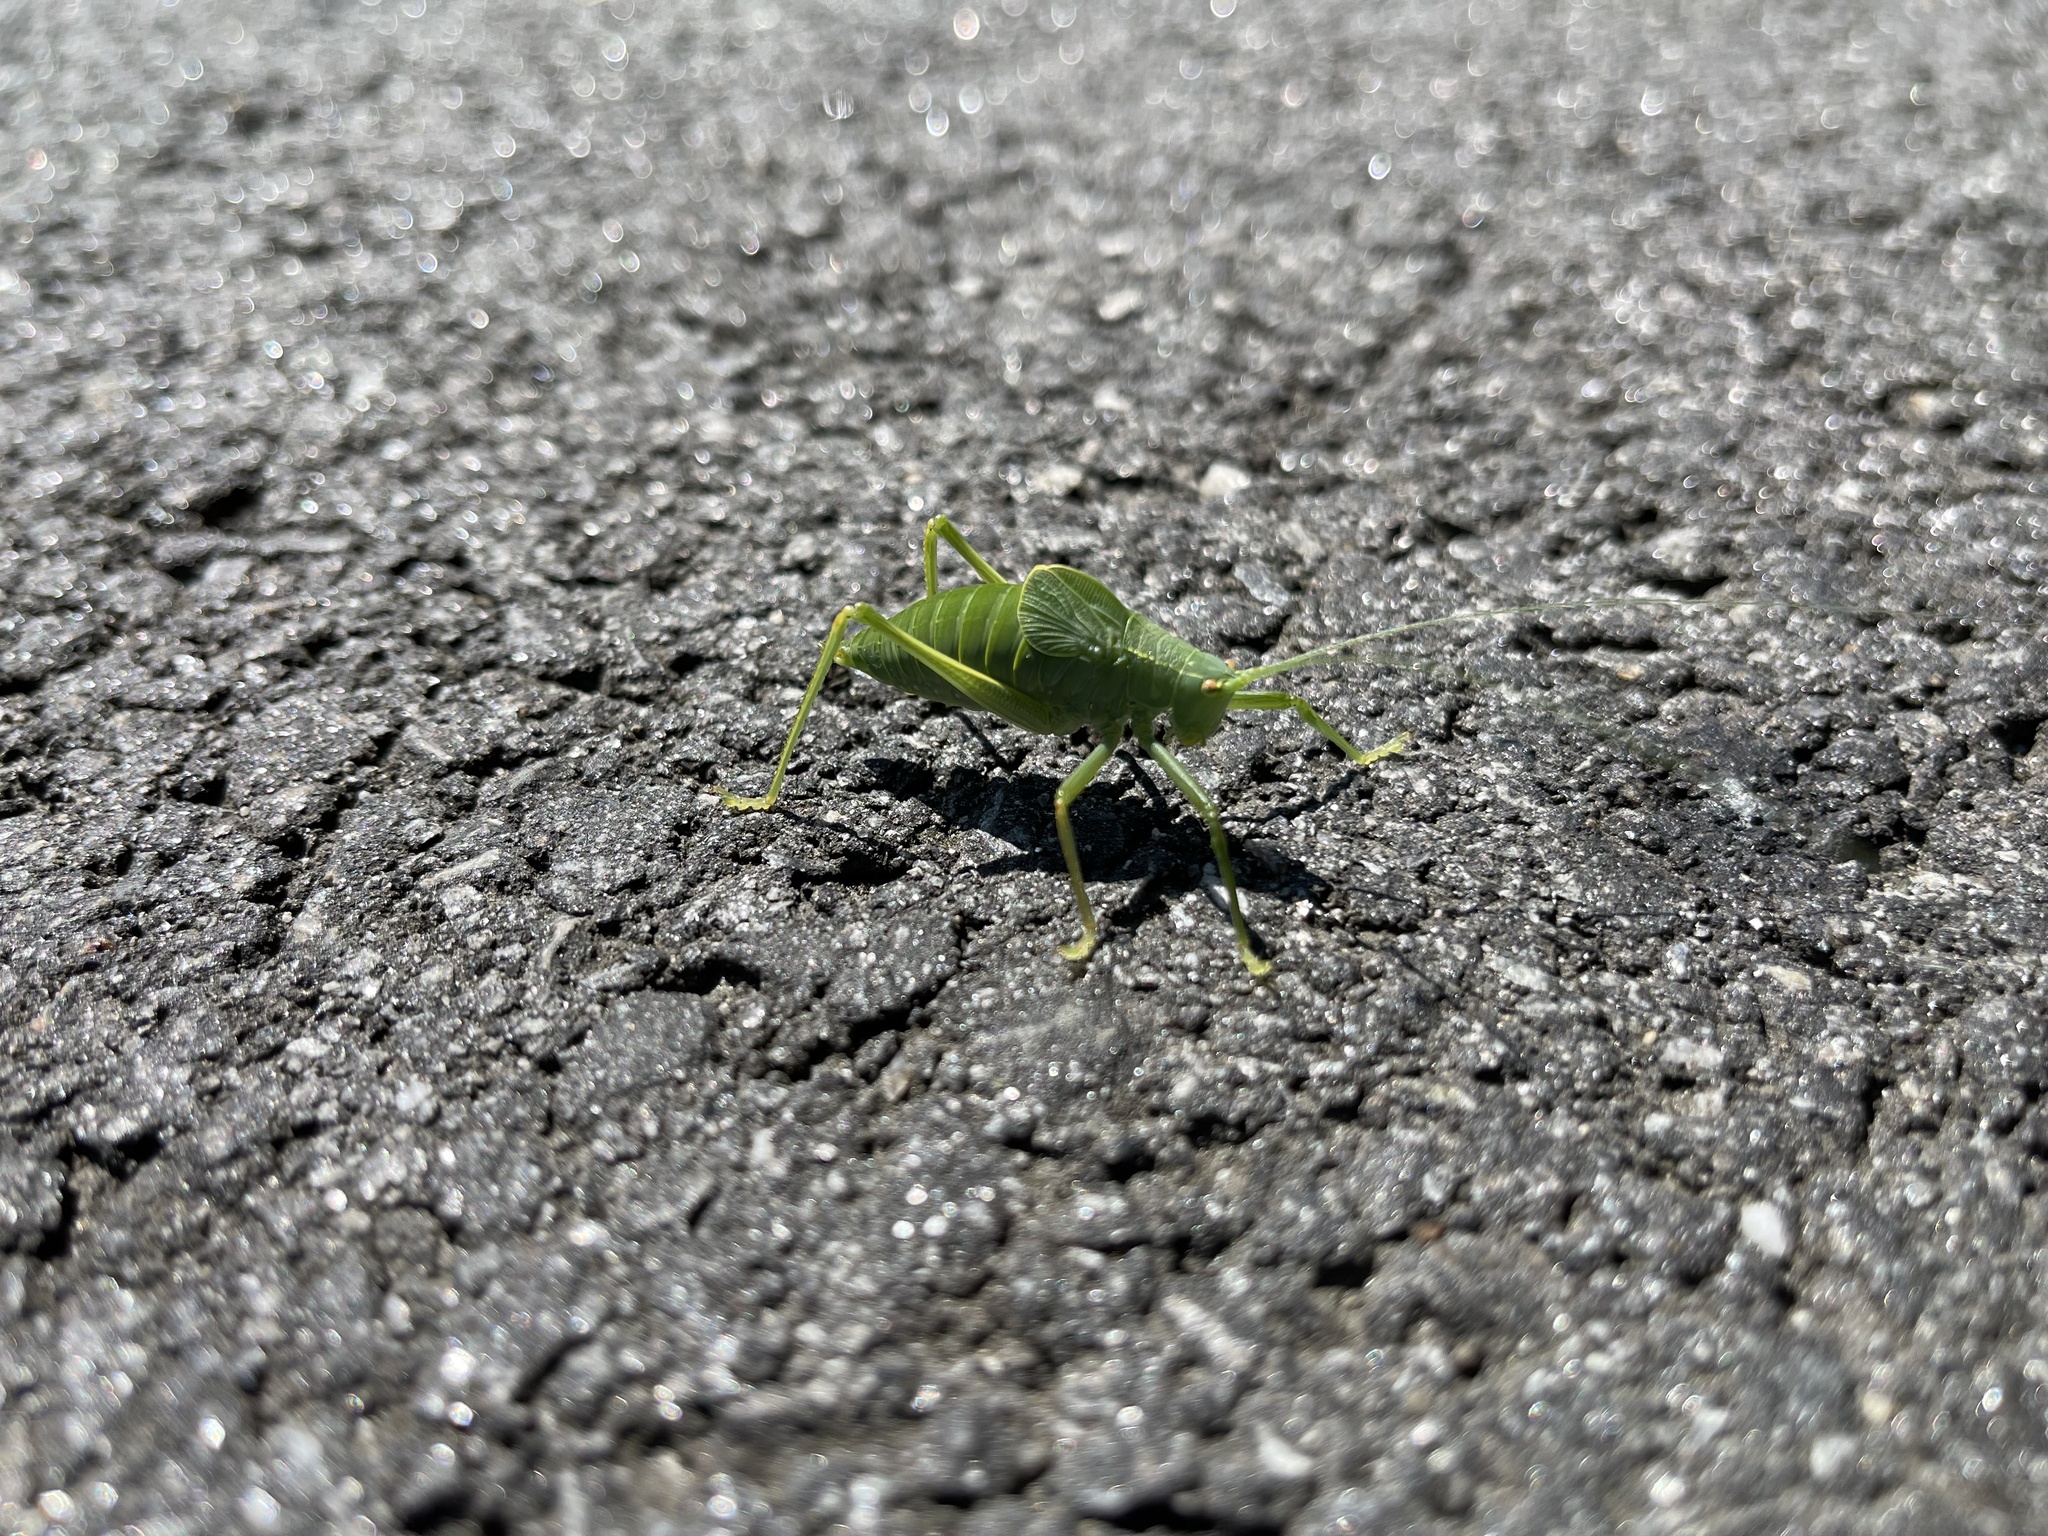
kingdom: Animalia
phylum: Arthropoda
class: Insecta
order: Orthoptera
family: Tettigoniidae
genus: Pterophylla
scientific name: Pterophylla camellifolia
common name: Common true katydid
